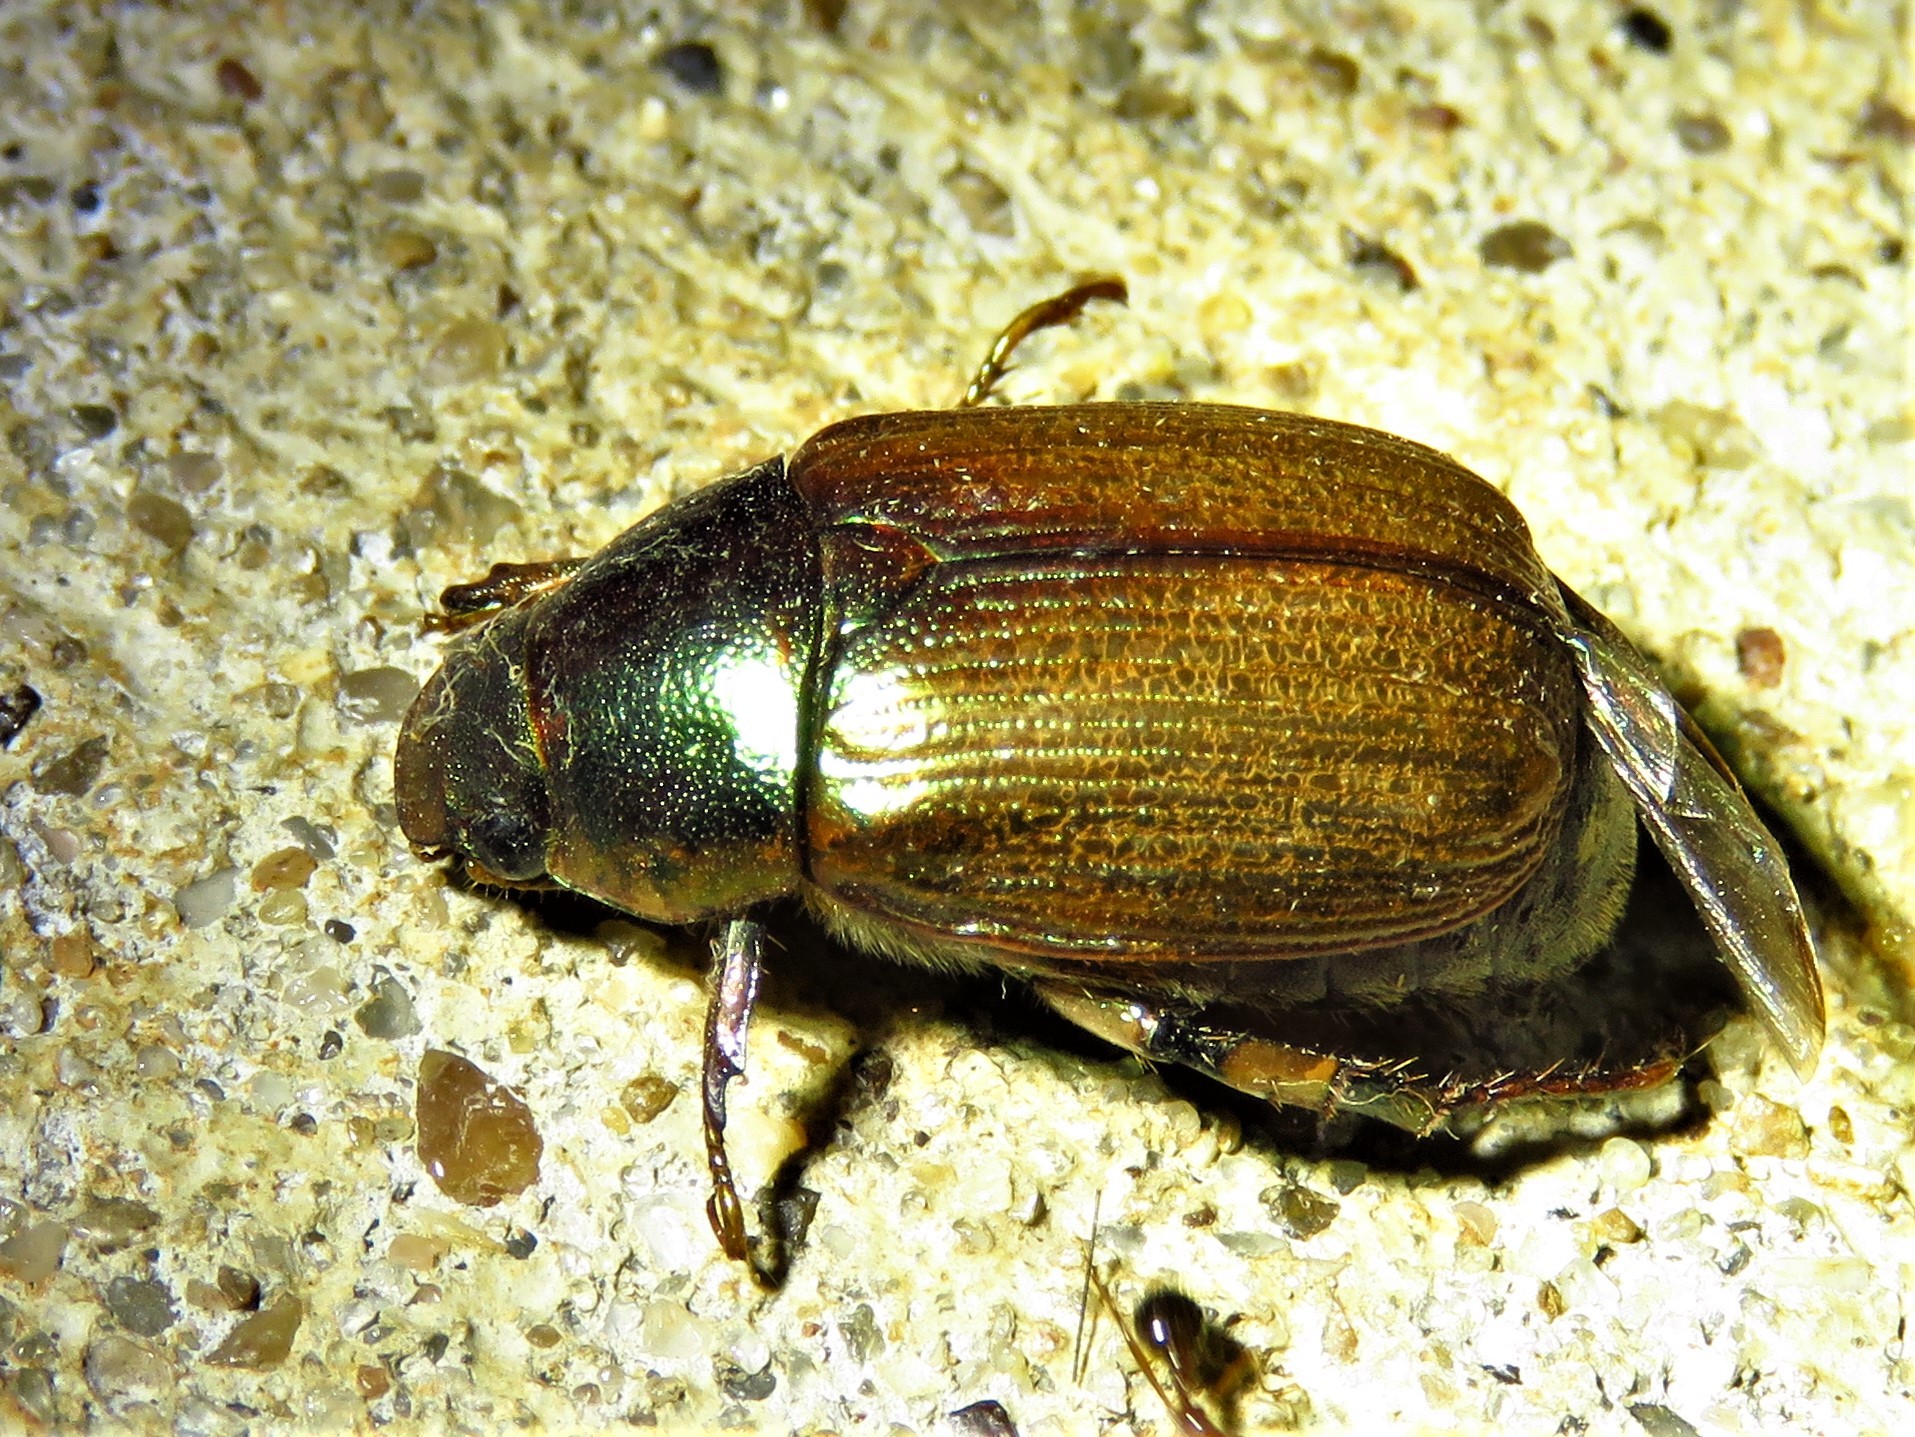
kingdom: Animalia
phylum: Arthropoda
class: Insecta
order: Coleoptera
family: Scarabaeidae
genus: Callistethus
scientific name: Callistethus marginatus
